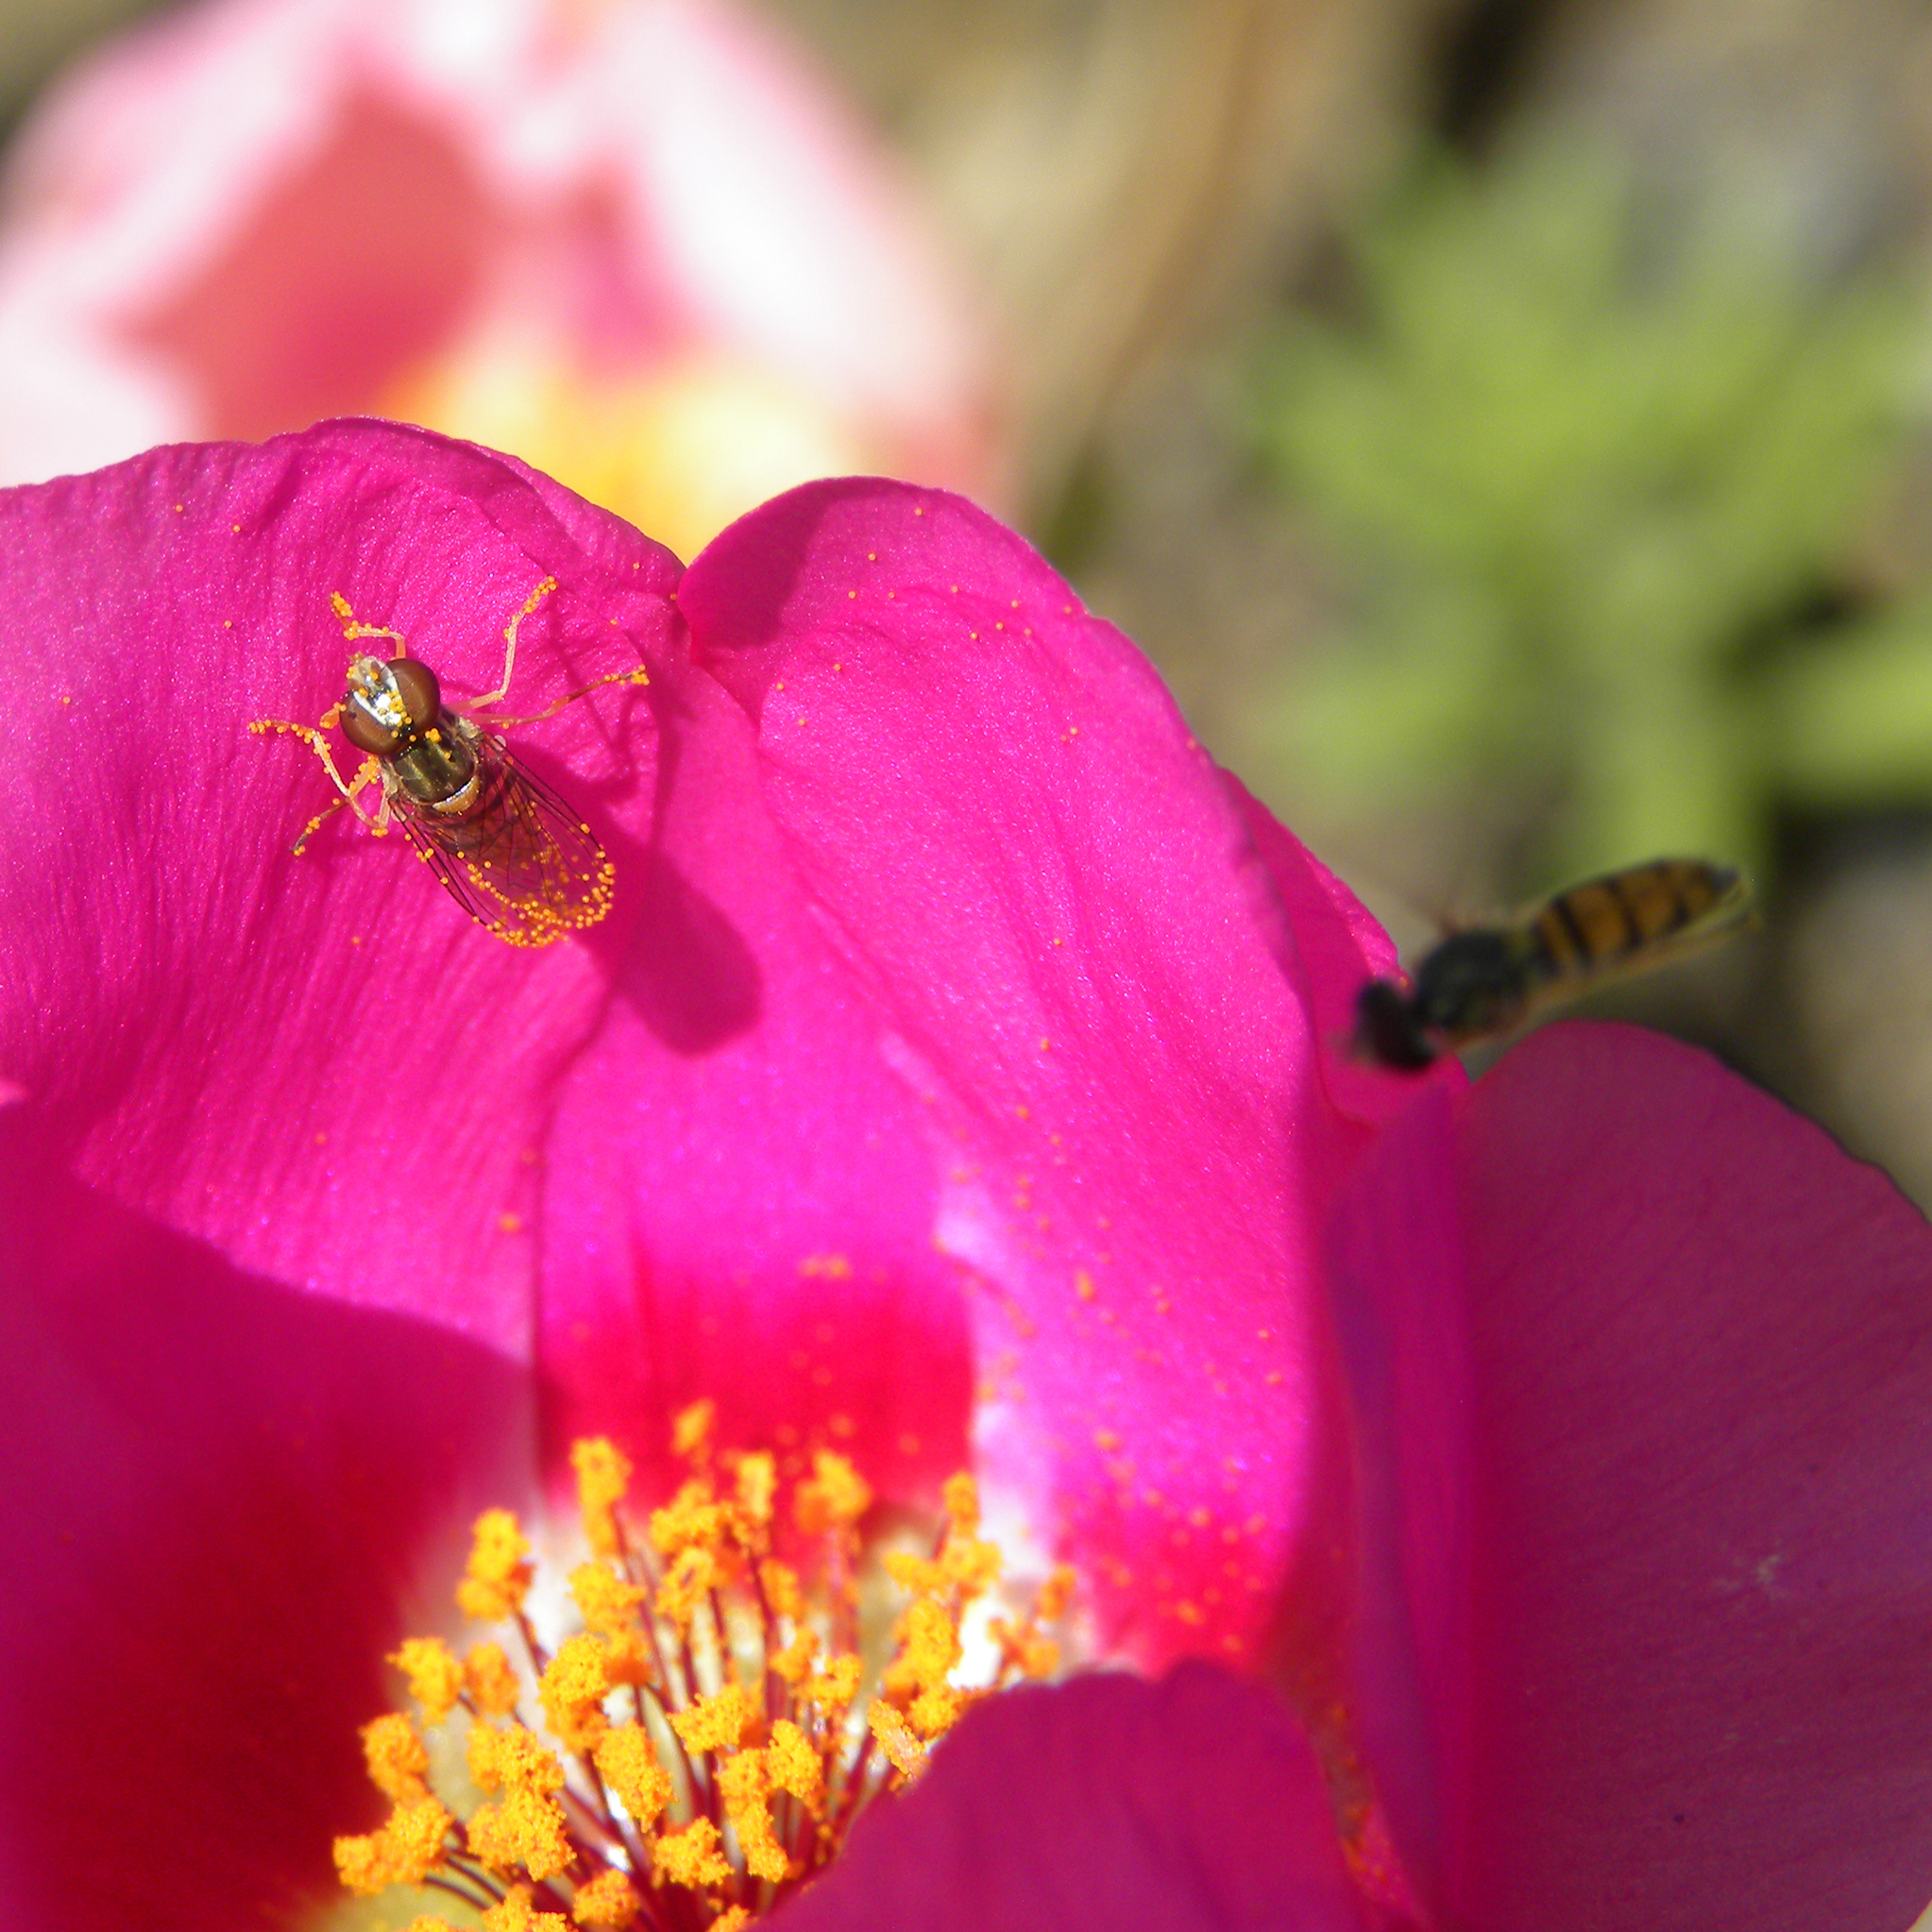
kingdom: Animalia
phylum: Arthropoda
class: Insecta
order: Diptera
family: Syrphidae
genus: Toxomerus
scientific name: Toxomerus marginatus
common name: Syrphid fly
